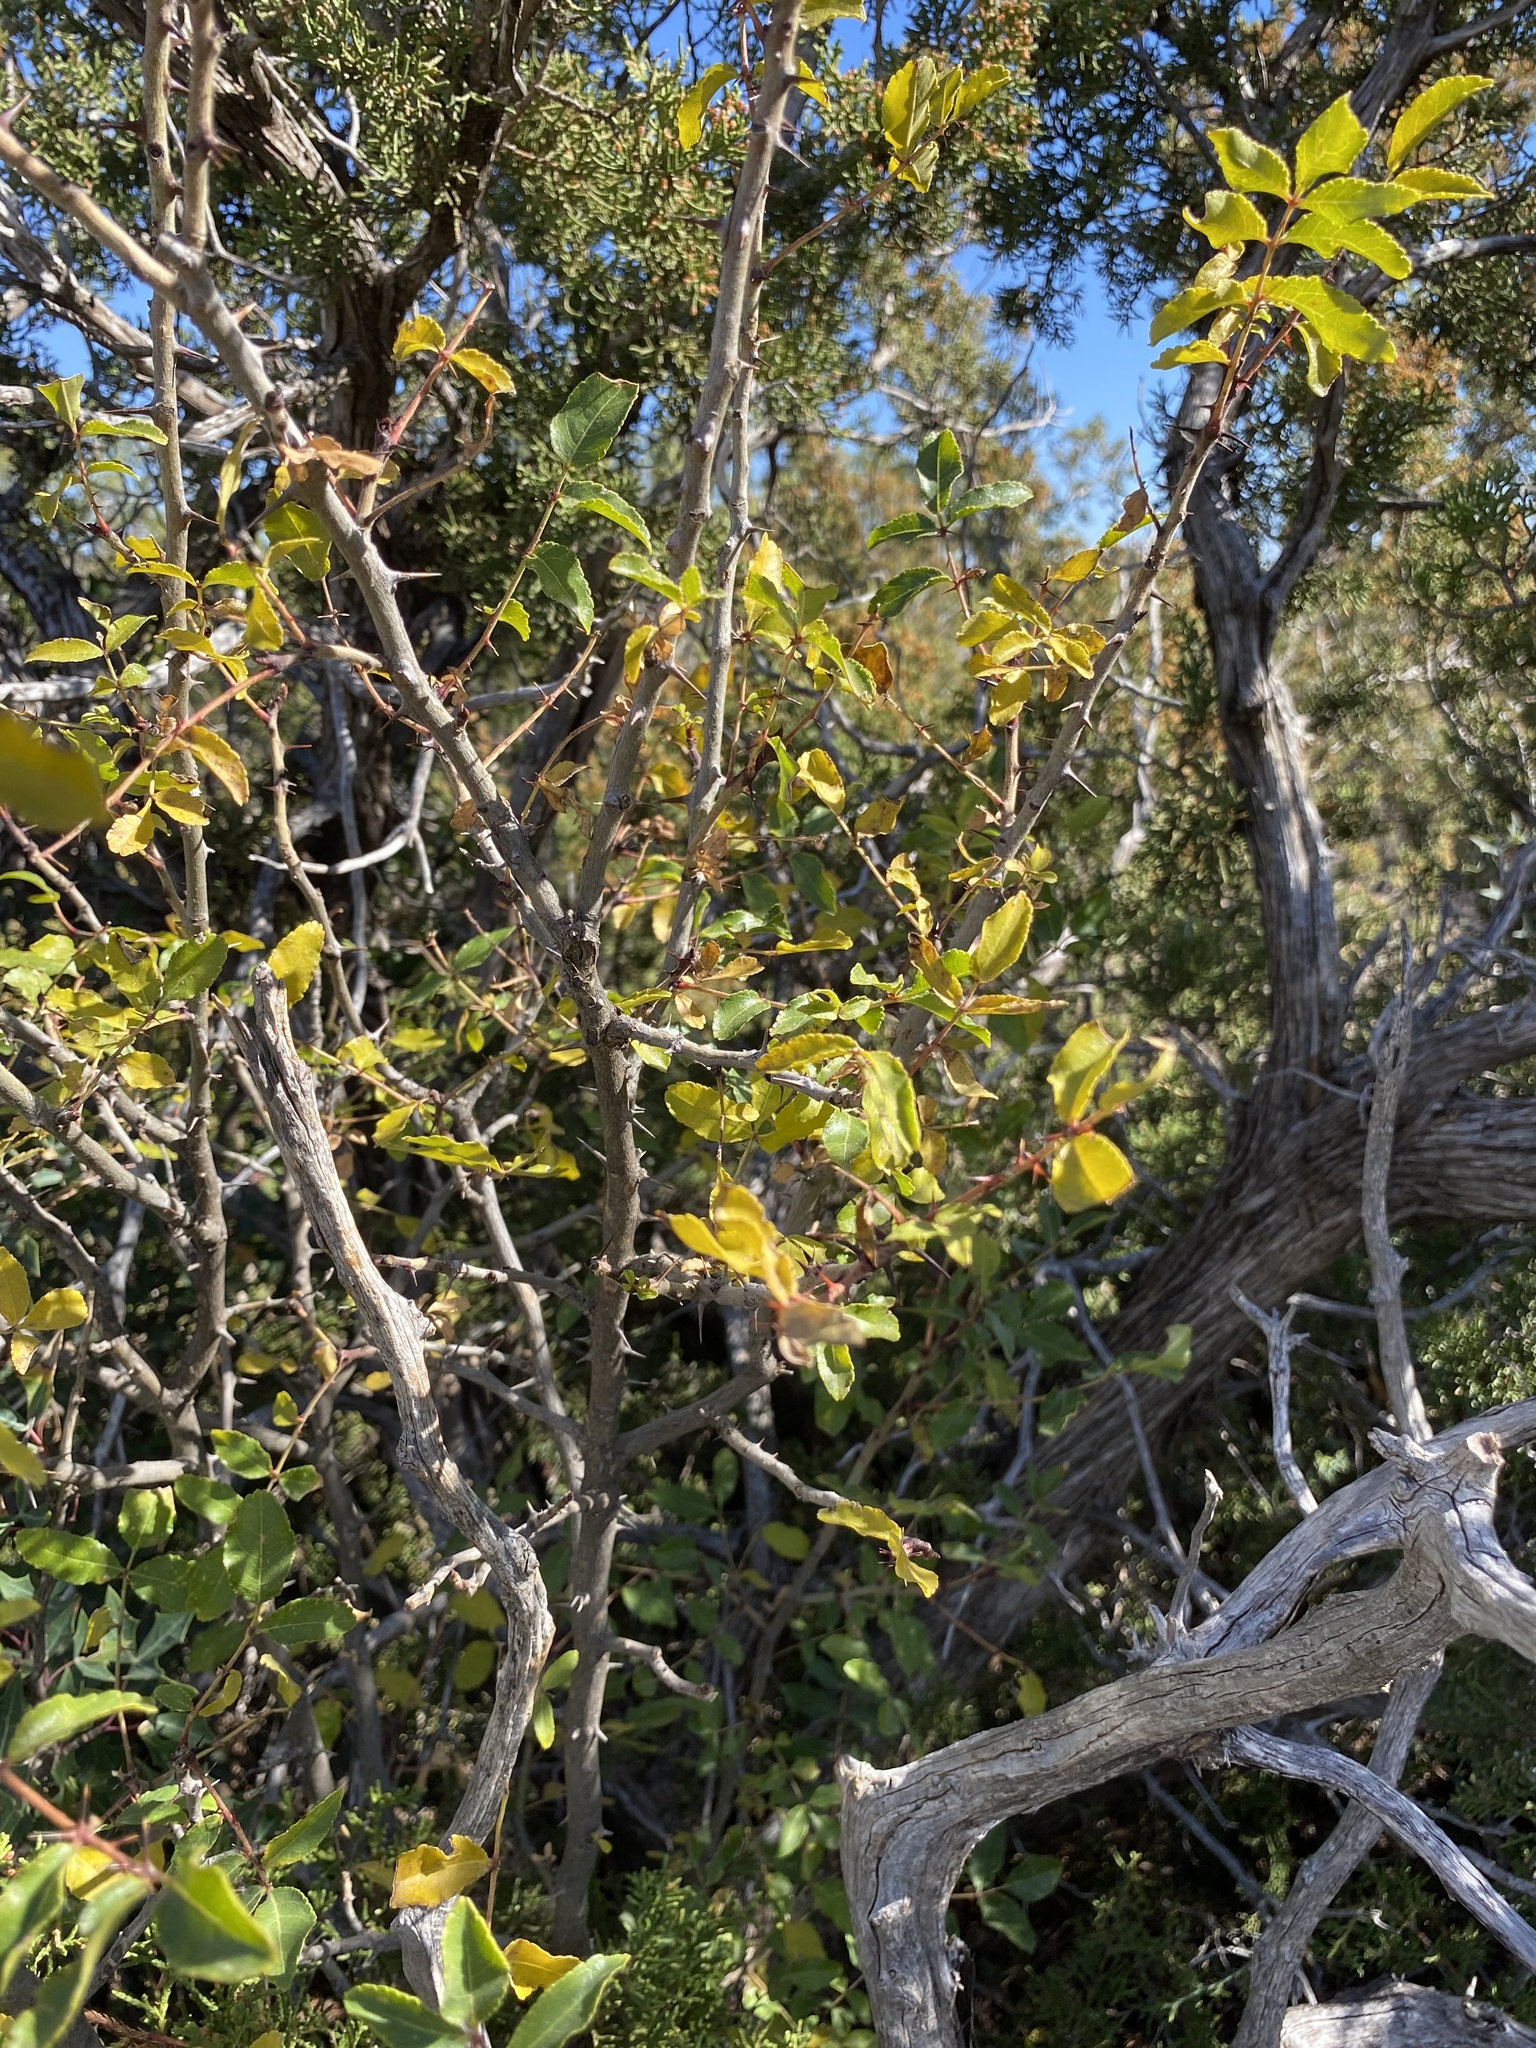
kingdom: Plantae
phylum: Tracheophyta
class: Magnoliopsida
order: Sapindales
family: Rutaceae
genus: Zanthoxylum
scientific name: Zanthoxylum clava-herculis
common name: Hercules'-club
